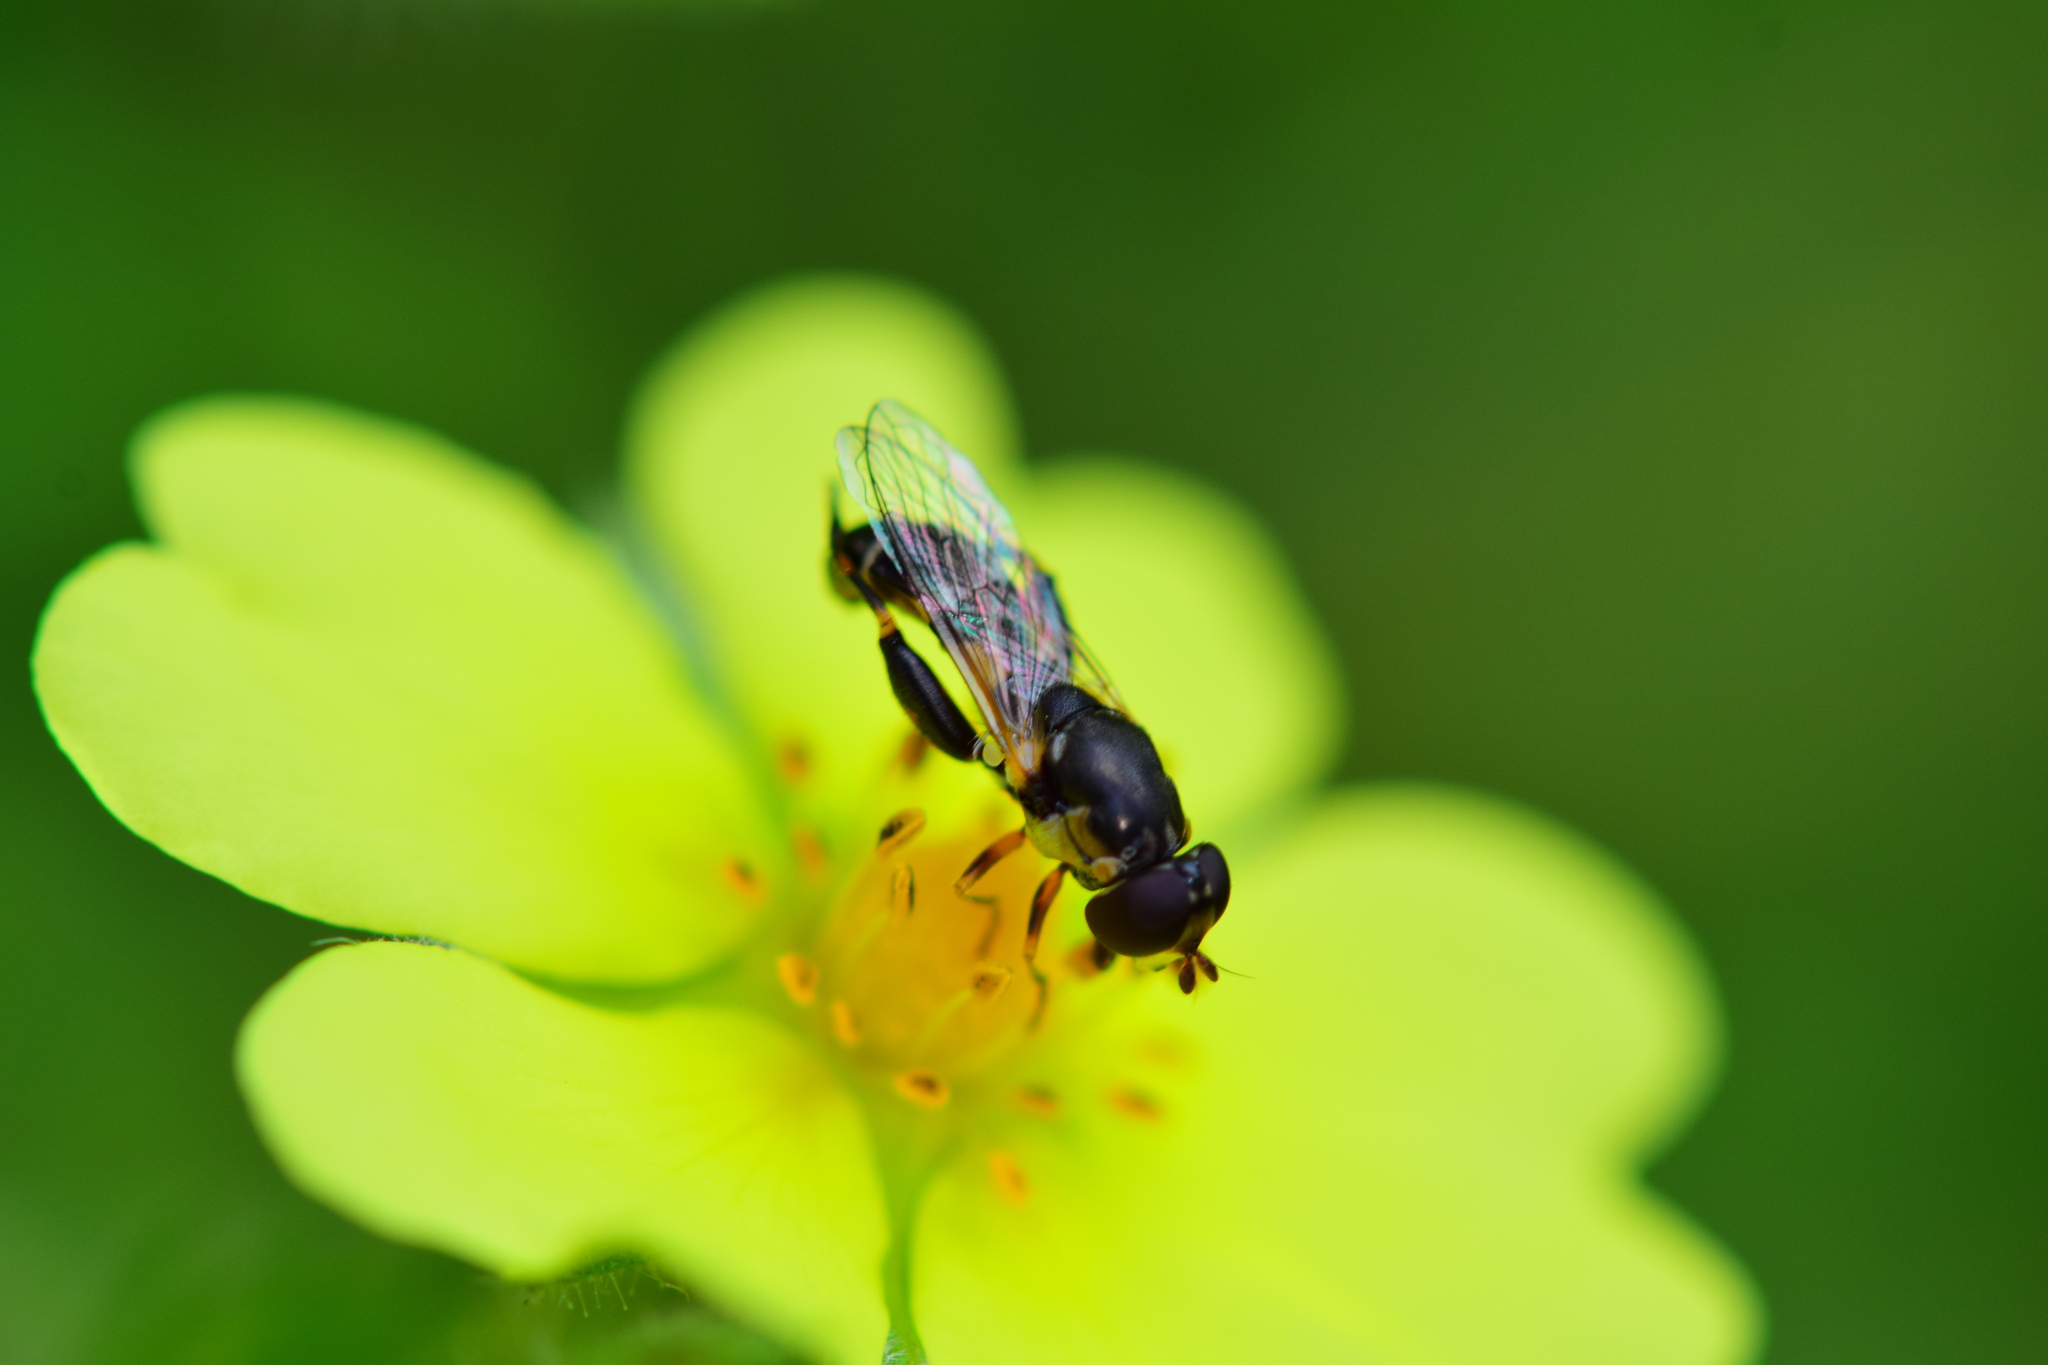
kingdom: Animalia
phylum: Arthropoda
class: Insecta
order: Diptera
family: Syrphidae
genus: Syritta
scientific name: Syritta pipiens
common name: Hover fly
